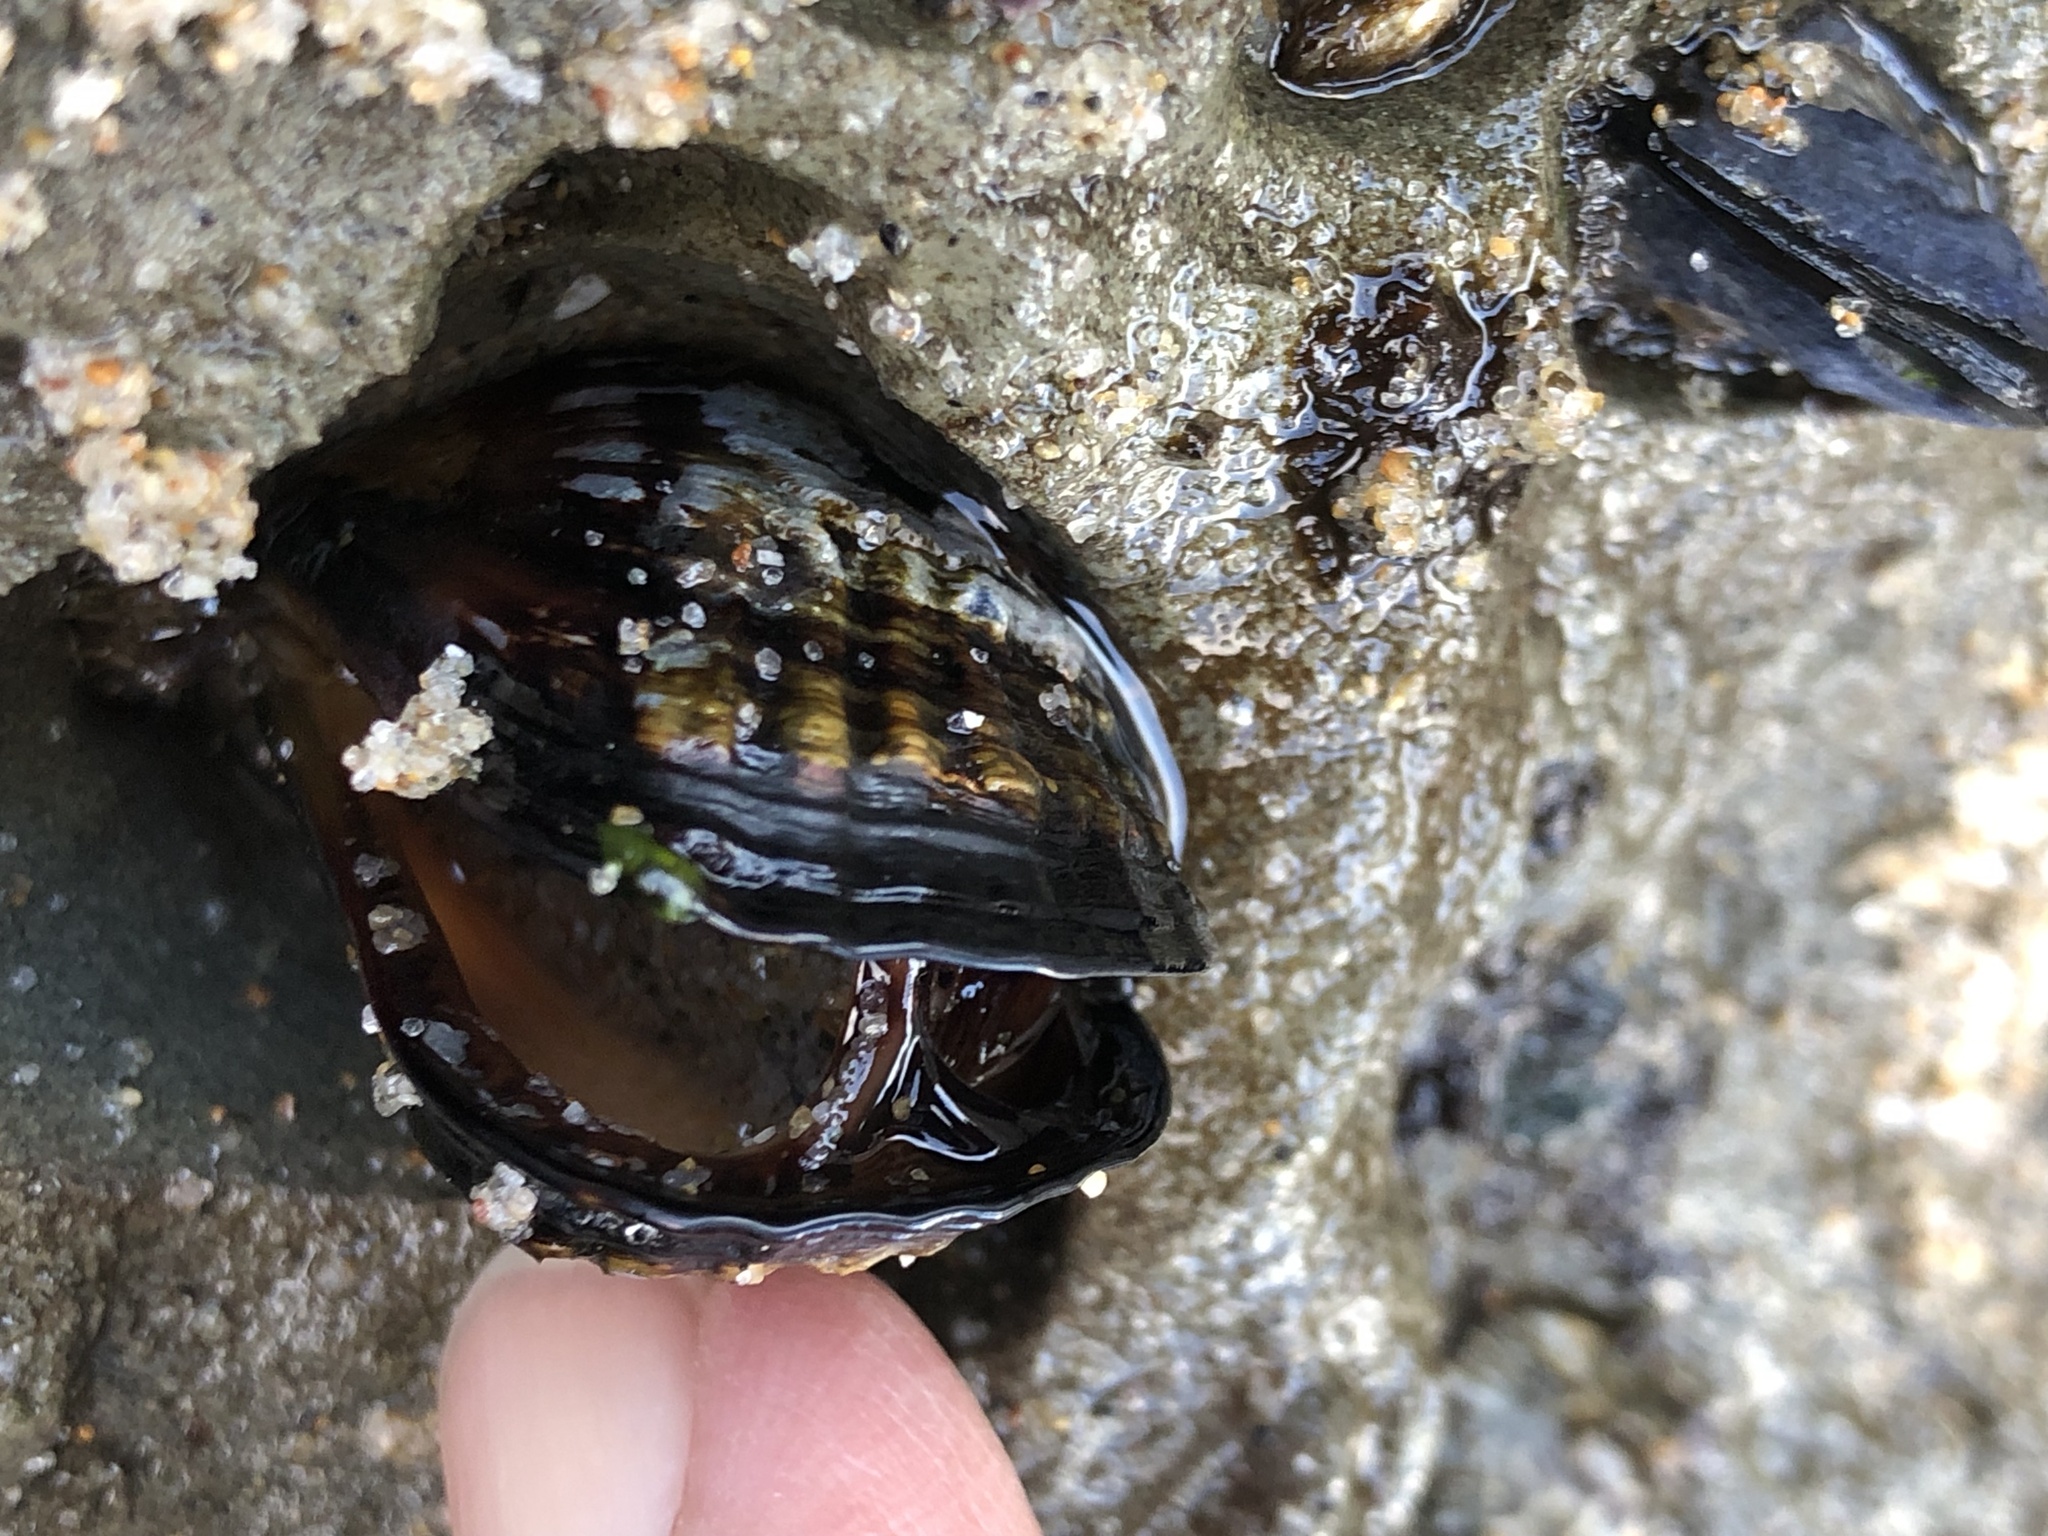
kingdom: Animalia
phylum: Mollusca
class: Bivalvia
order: Mytilida
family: Mytilidae
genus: Mytilus
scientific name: Mytilus californianus
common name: California mussel
